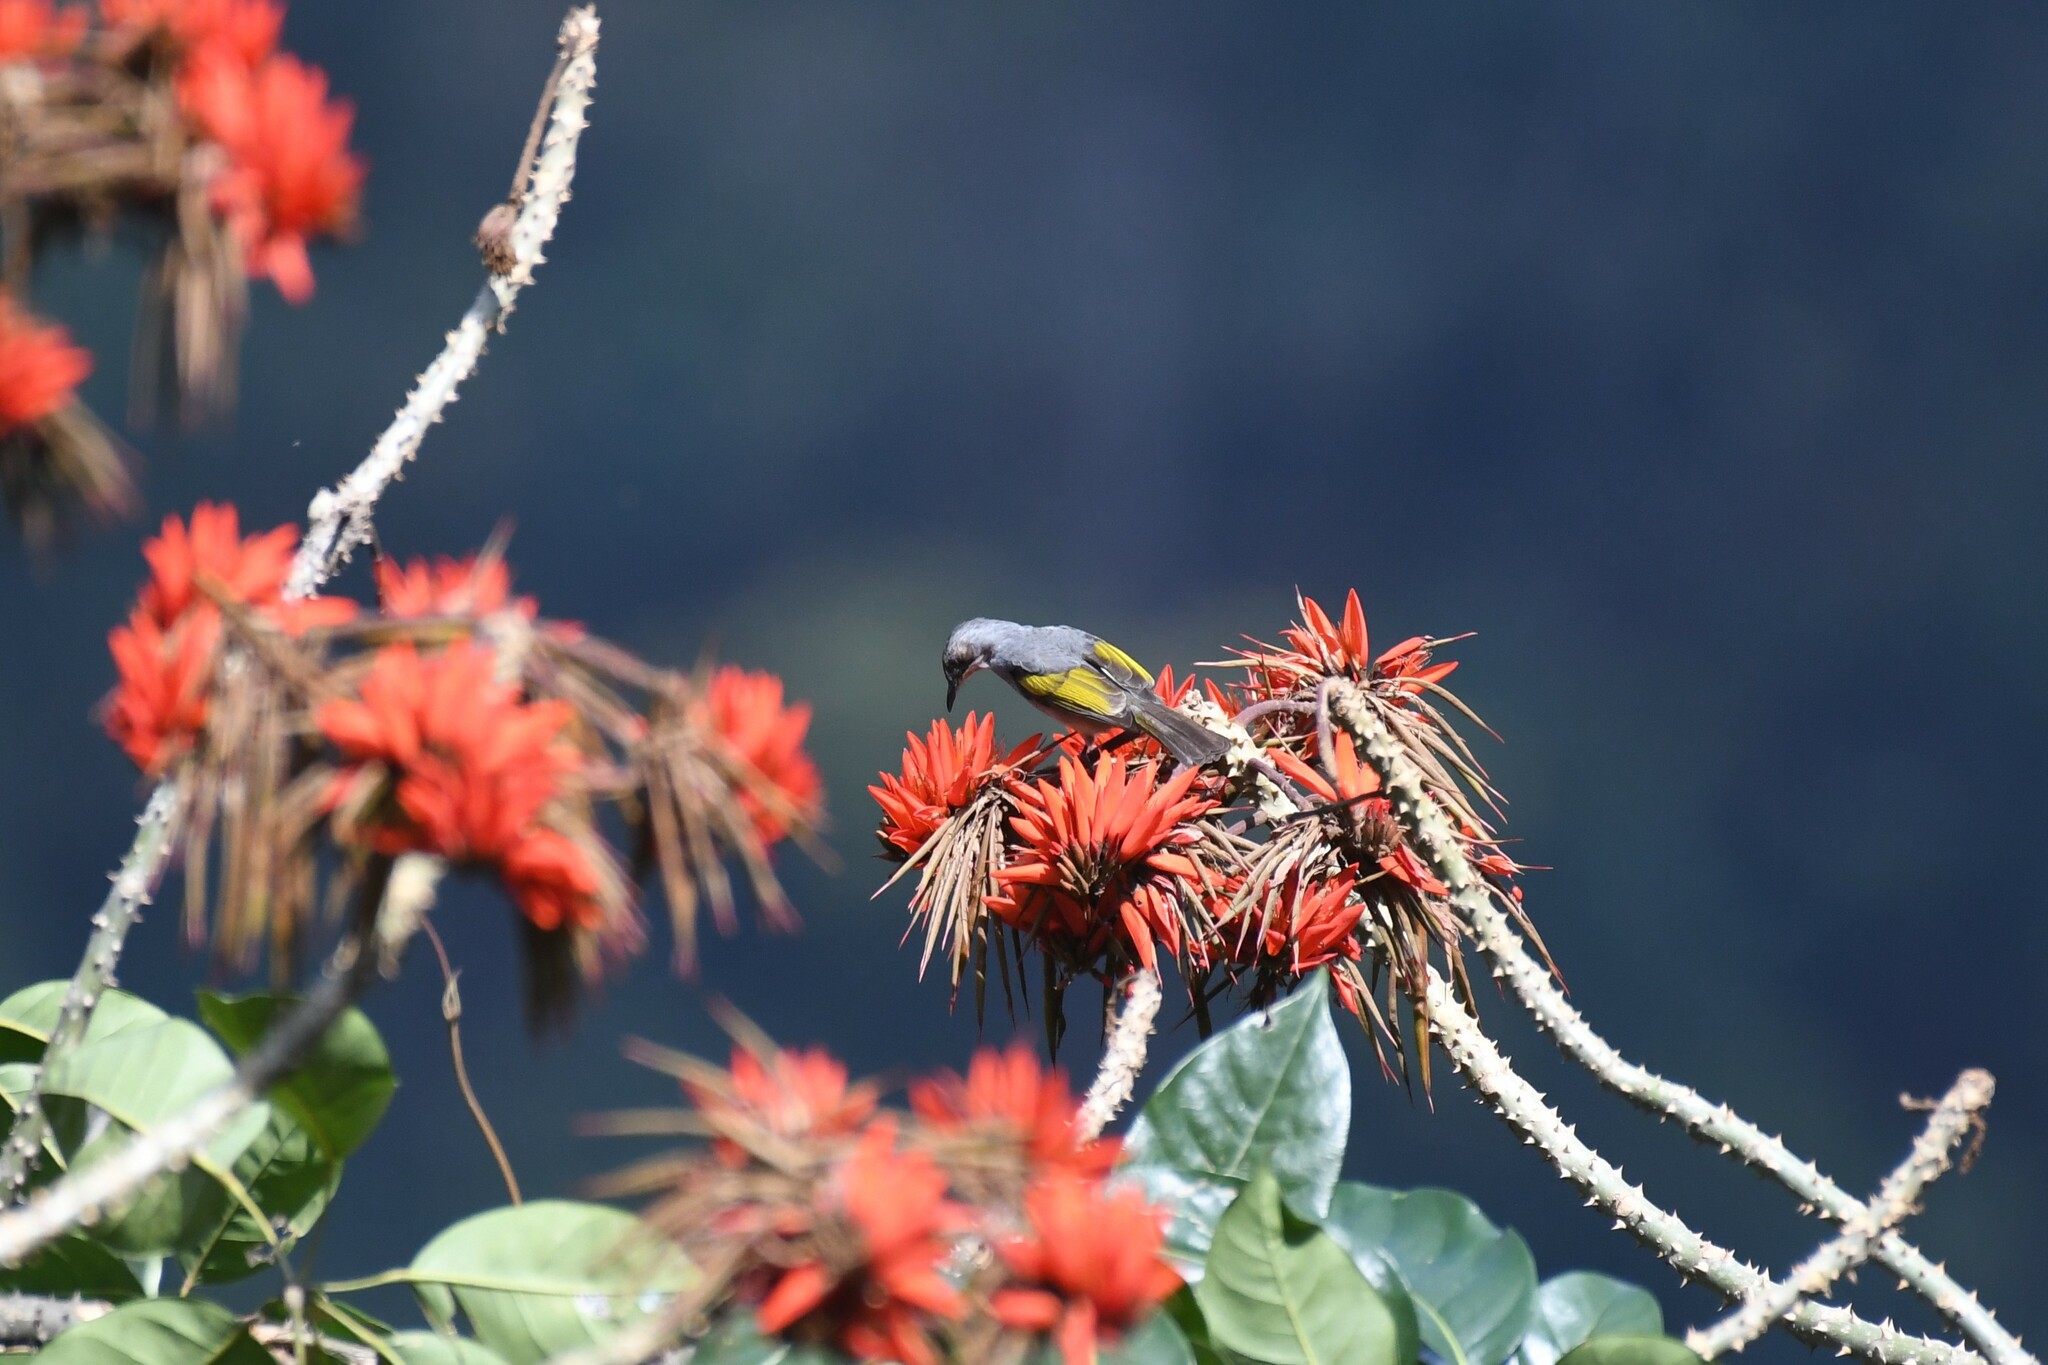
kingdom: Animalia
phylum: Chordata
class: Aves
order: Passeriformes
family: Pycnonotidae
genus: Hemixos
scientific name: Hemixos flavala
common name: Ashy bulbul
